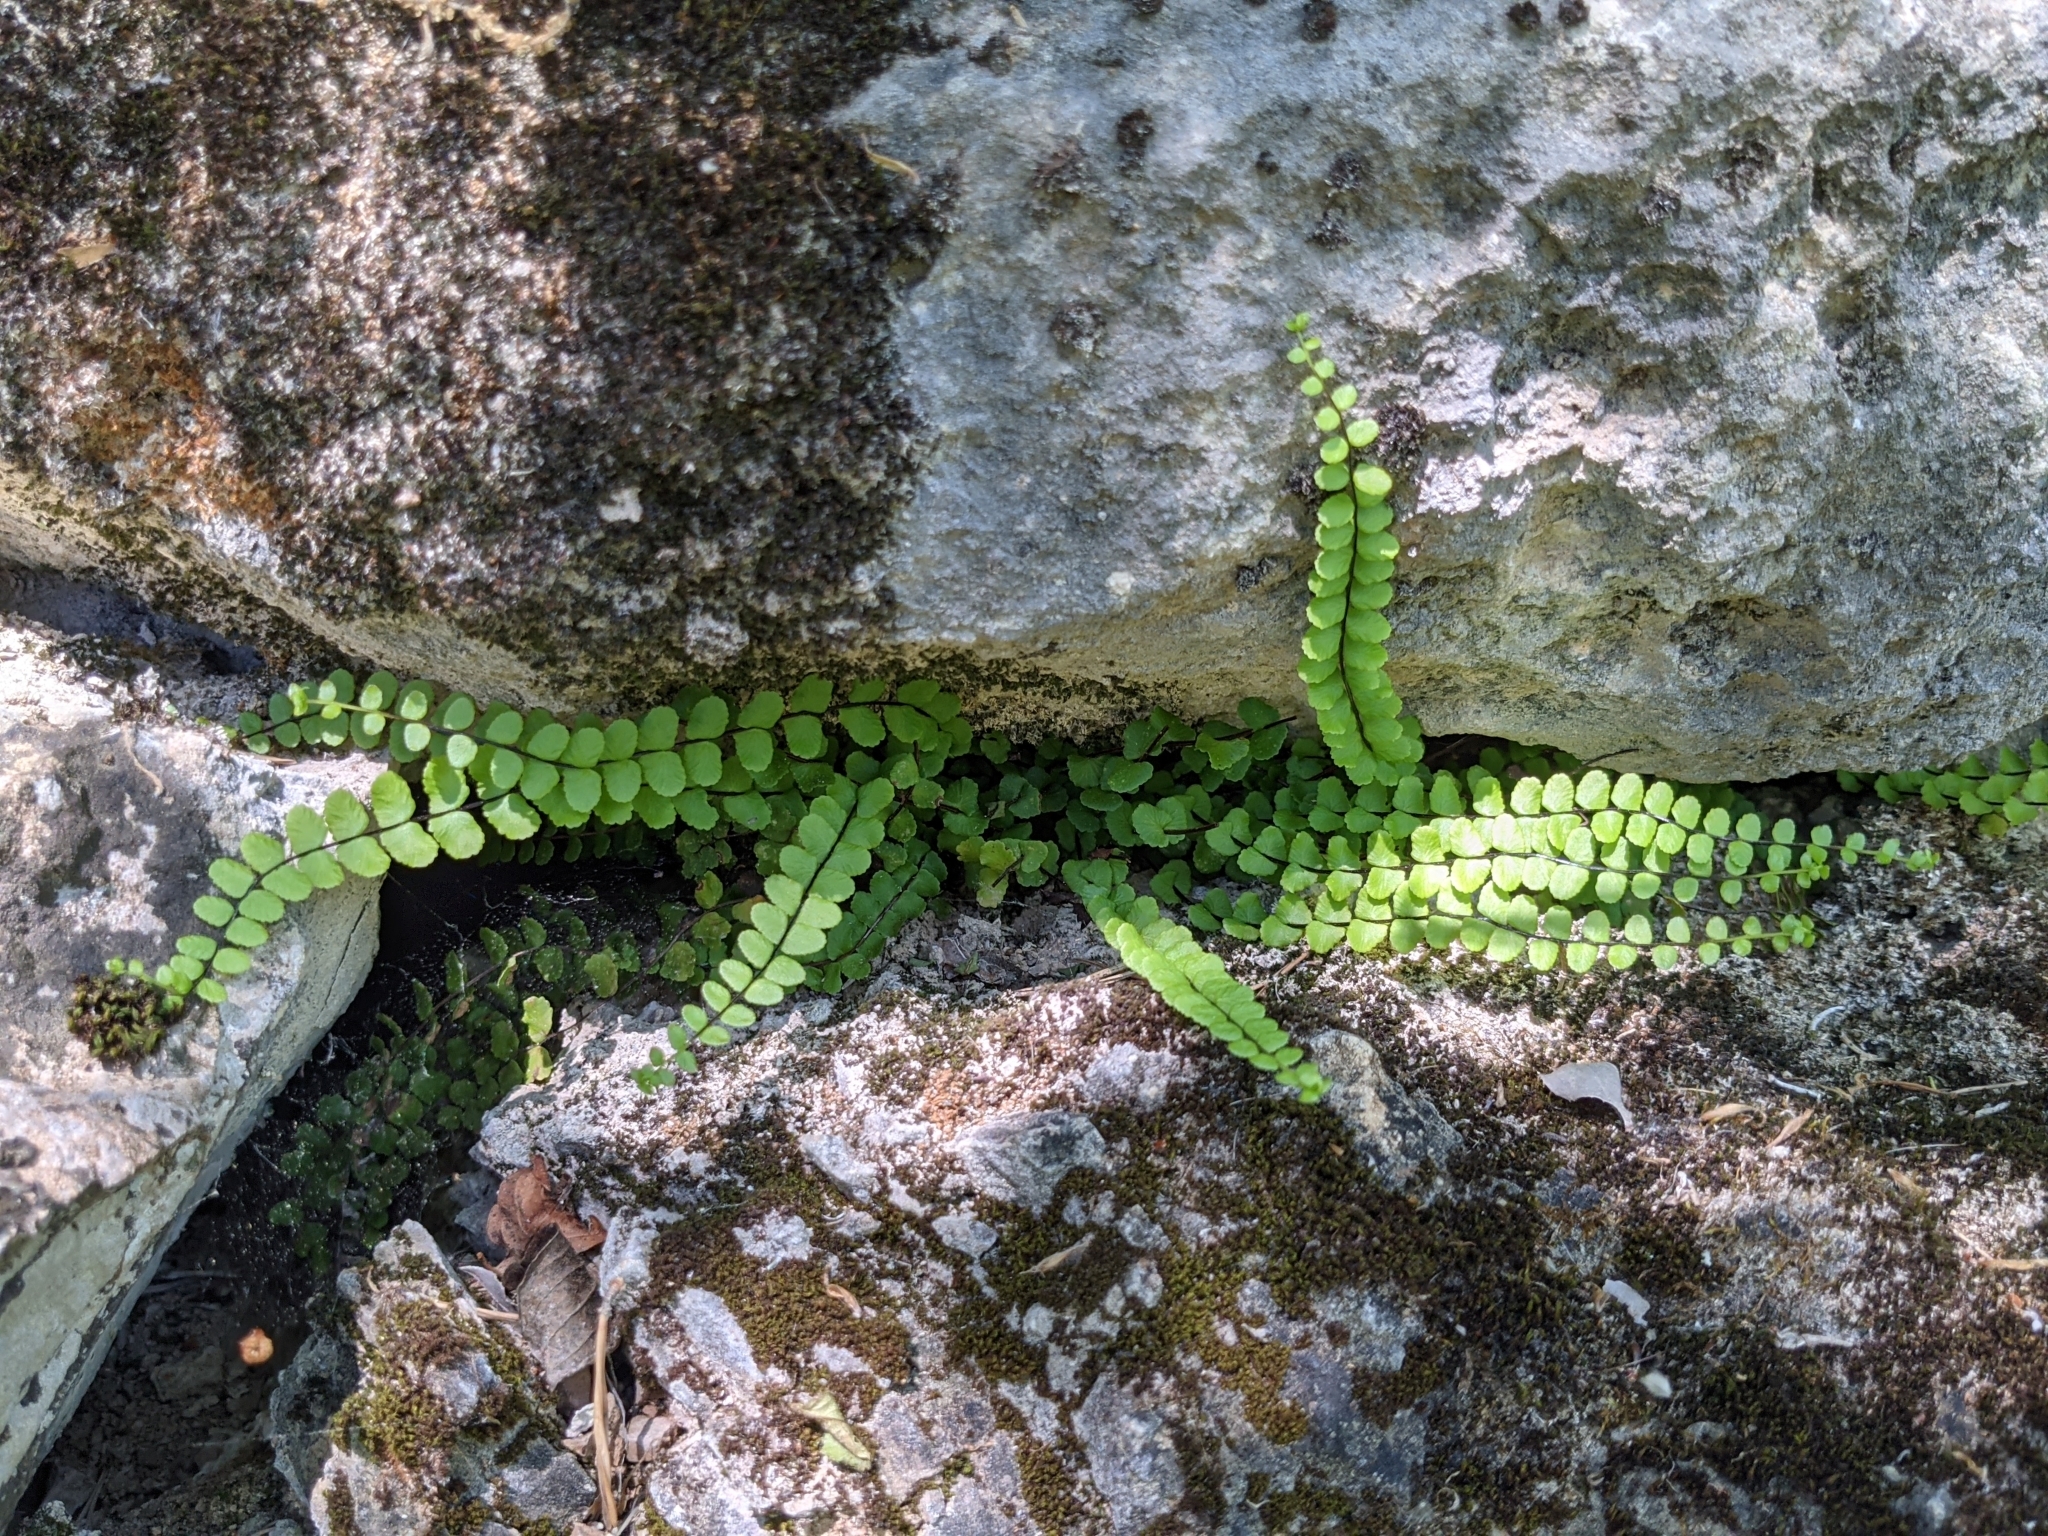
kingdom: Plantae
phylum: Tracheophyta
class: Polypodiopsida
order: Polypodiales
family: Aspleniaceae
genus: Asplenium
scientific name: Asplenium trichomanes
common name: Maidenhair spleenwort
